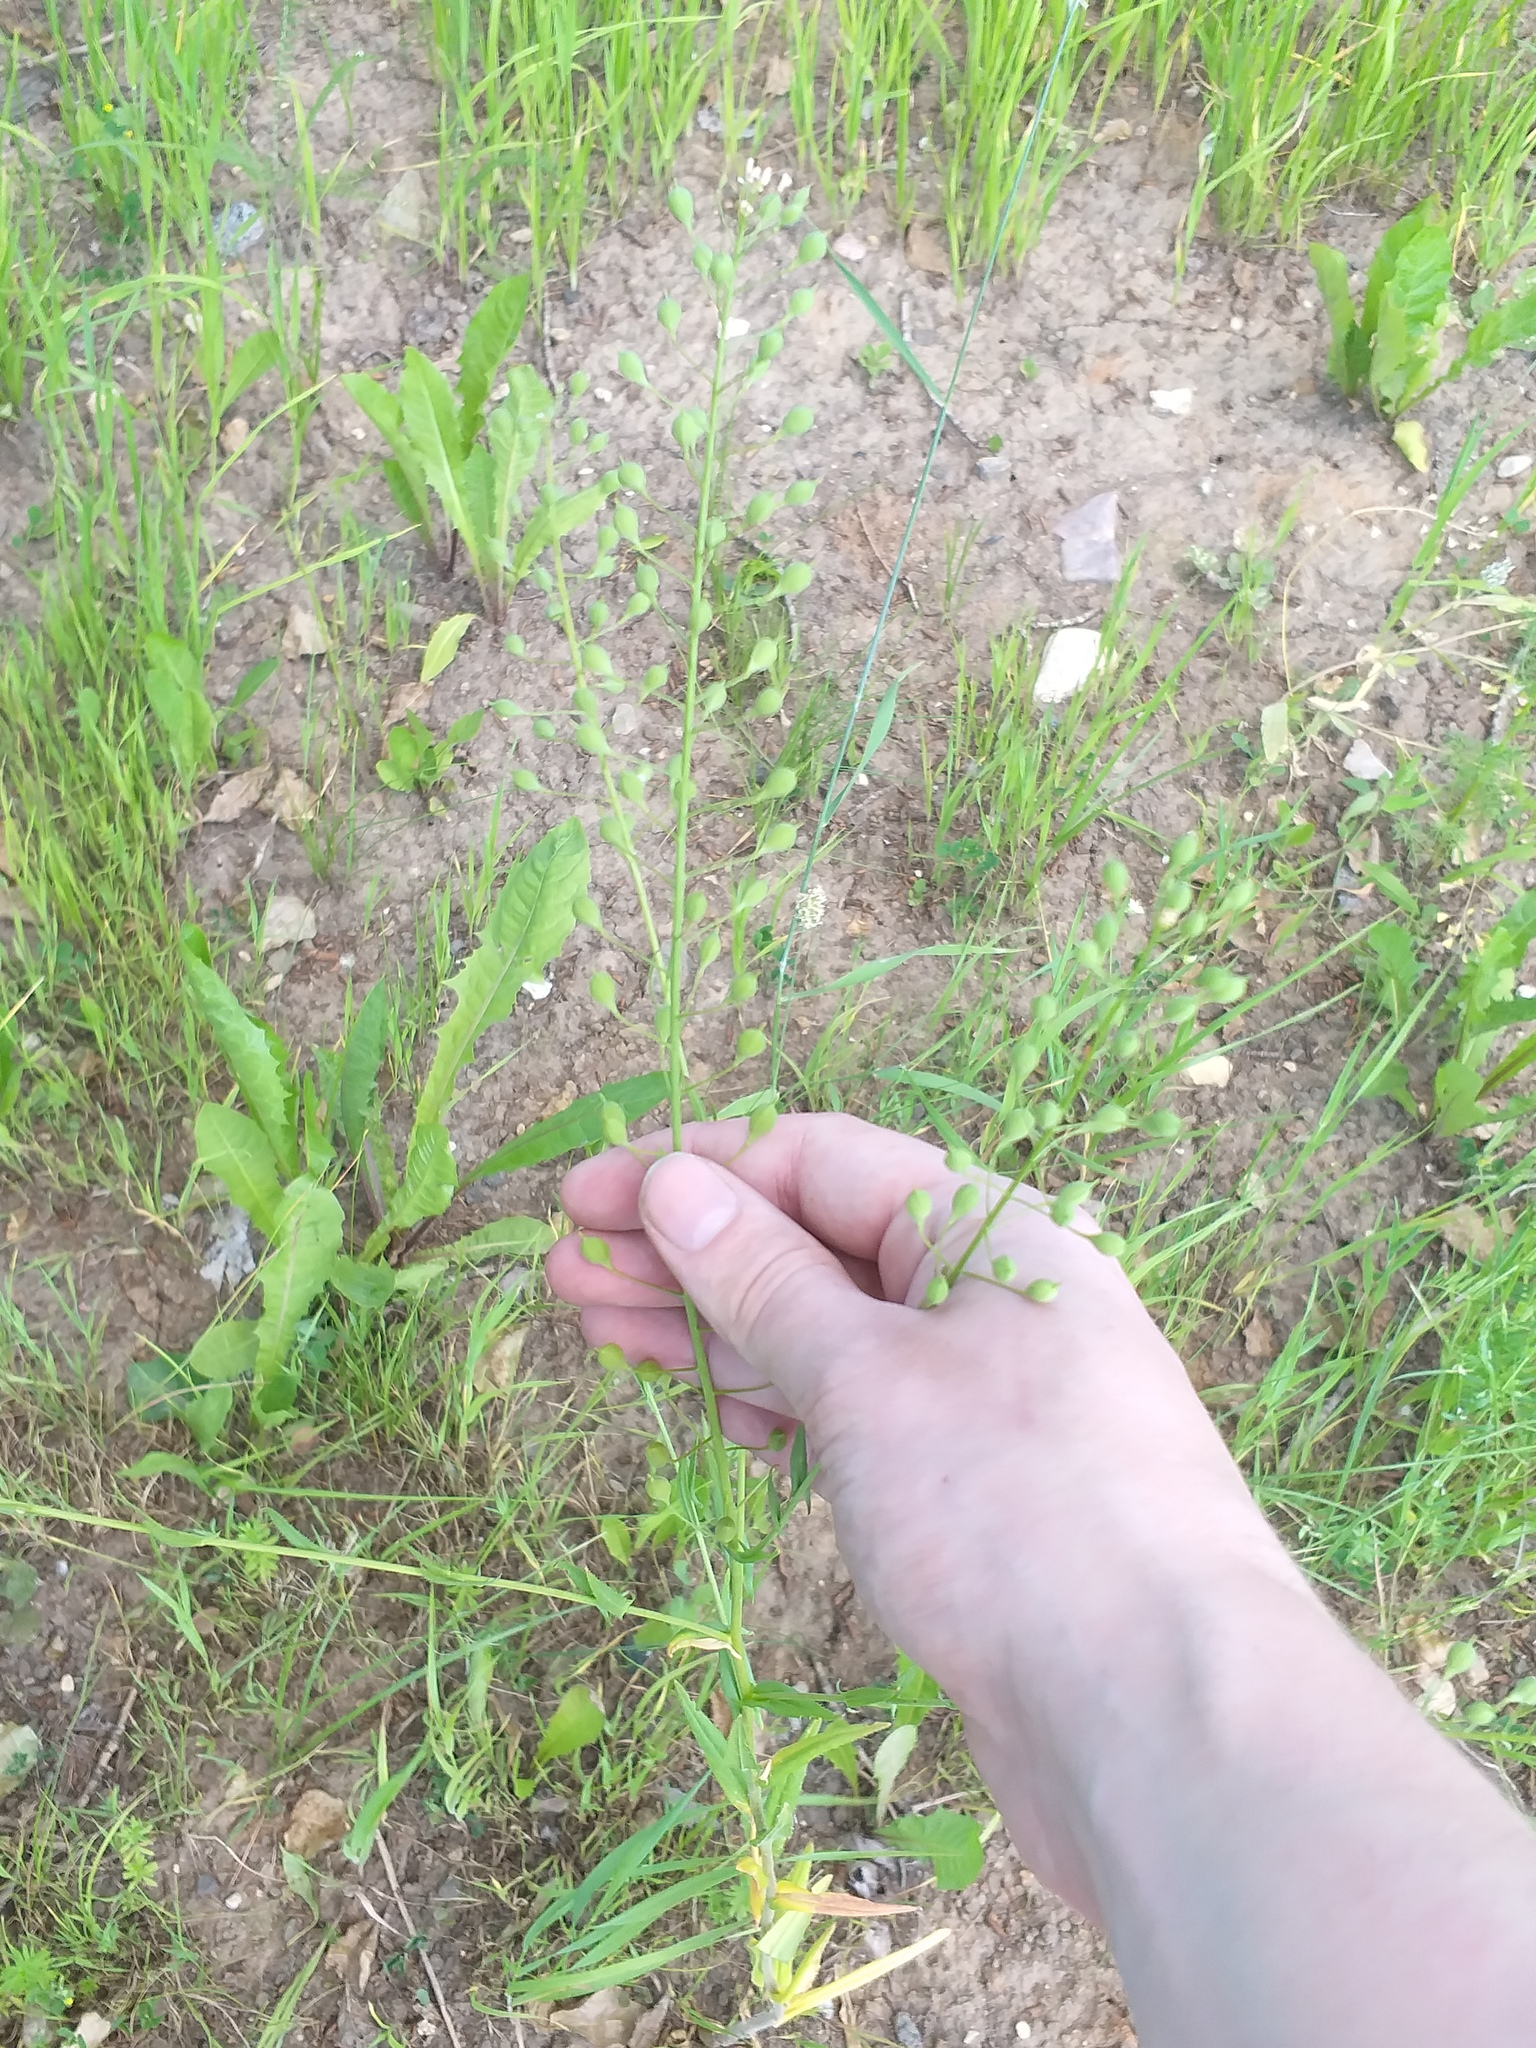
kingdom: Plantae
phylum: Tracheophyta
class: Magnoliopsida
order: Brassicales
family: Brassicaceae
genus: Camelina
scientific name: Camelina microcarpa
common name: Lesser gold-of-pleasure
